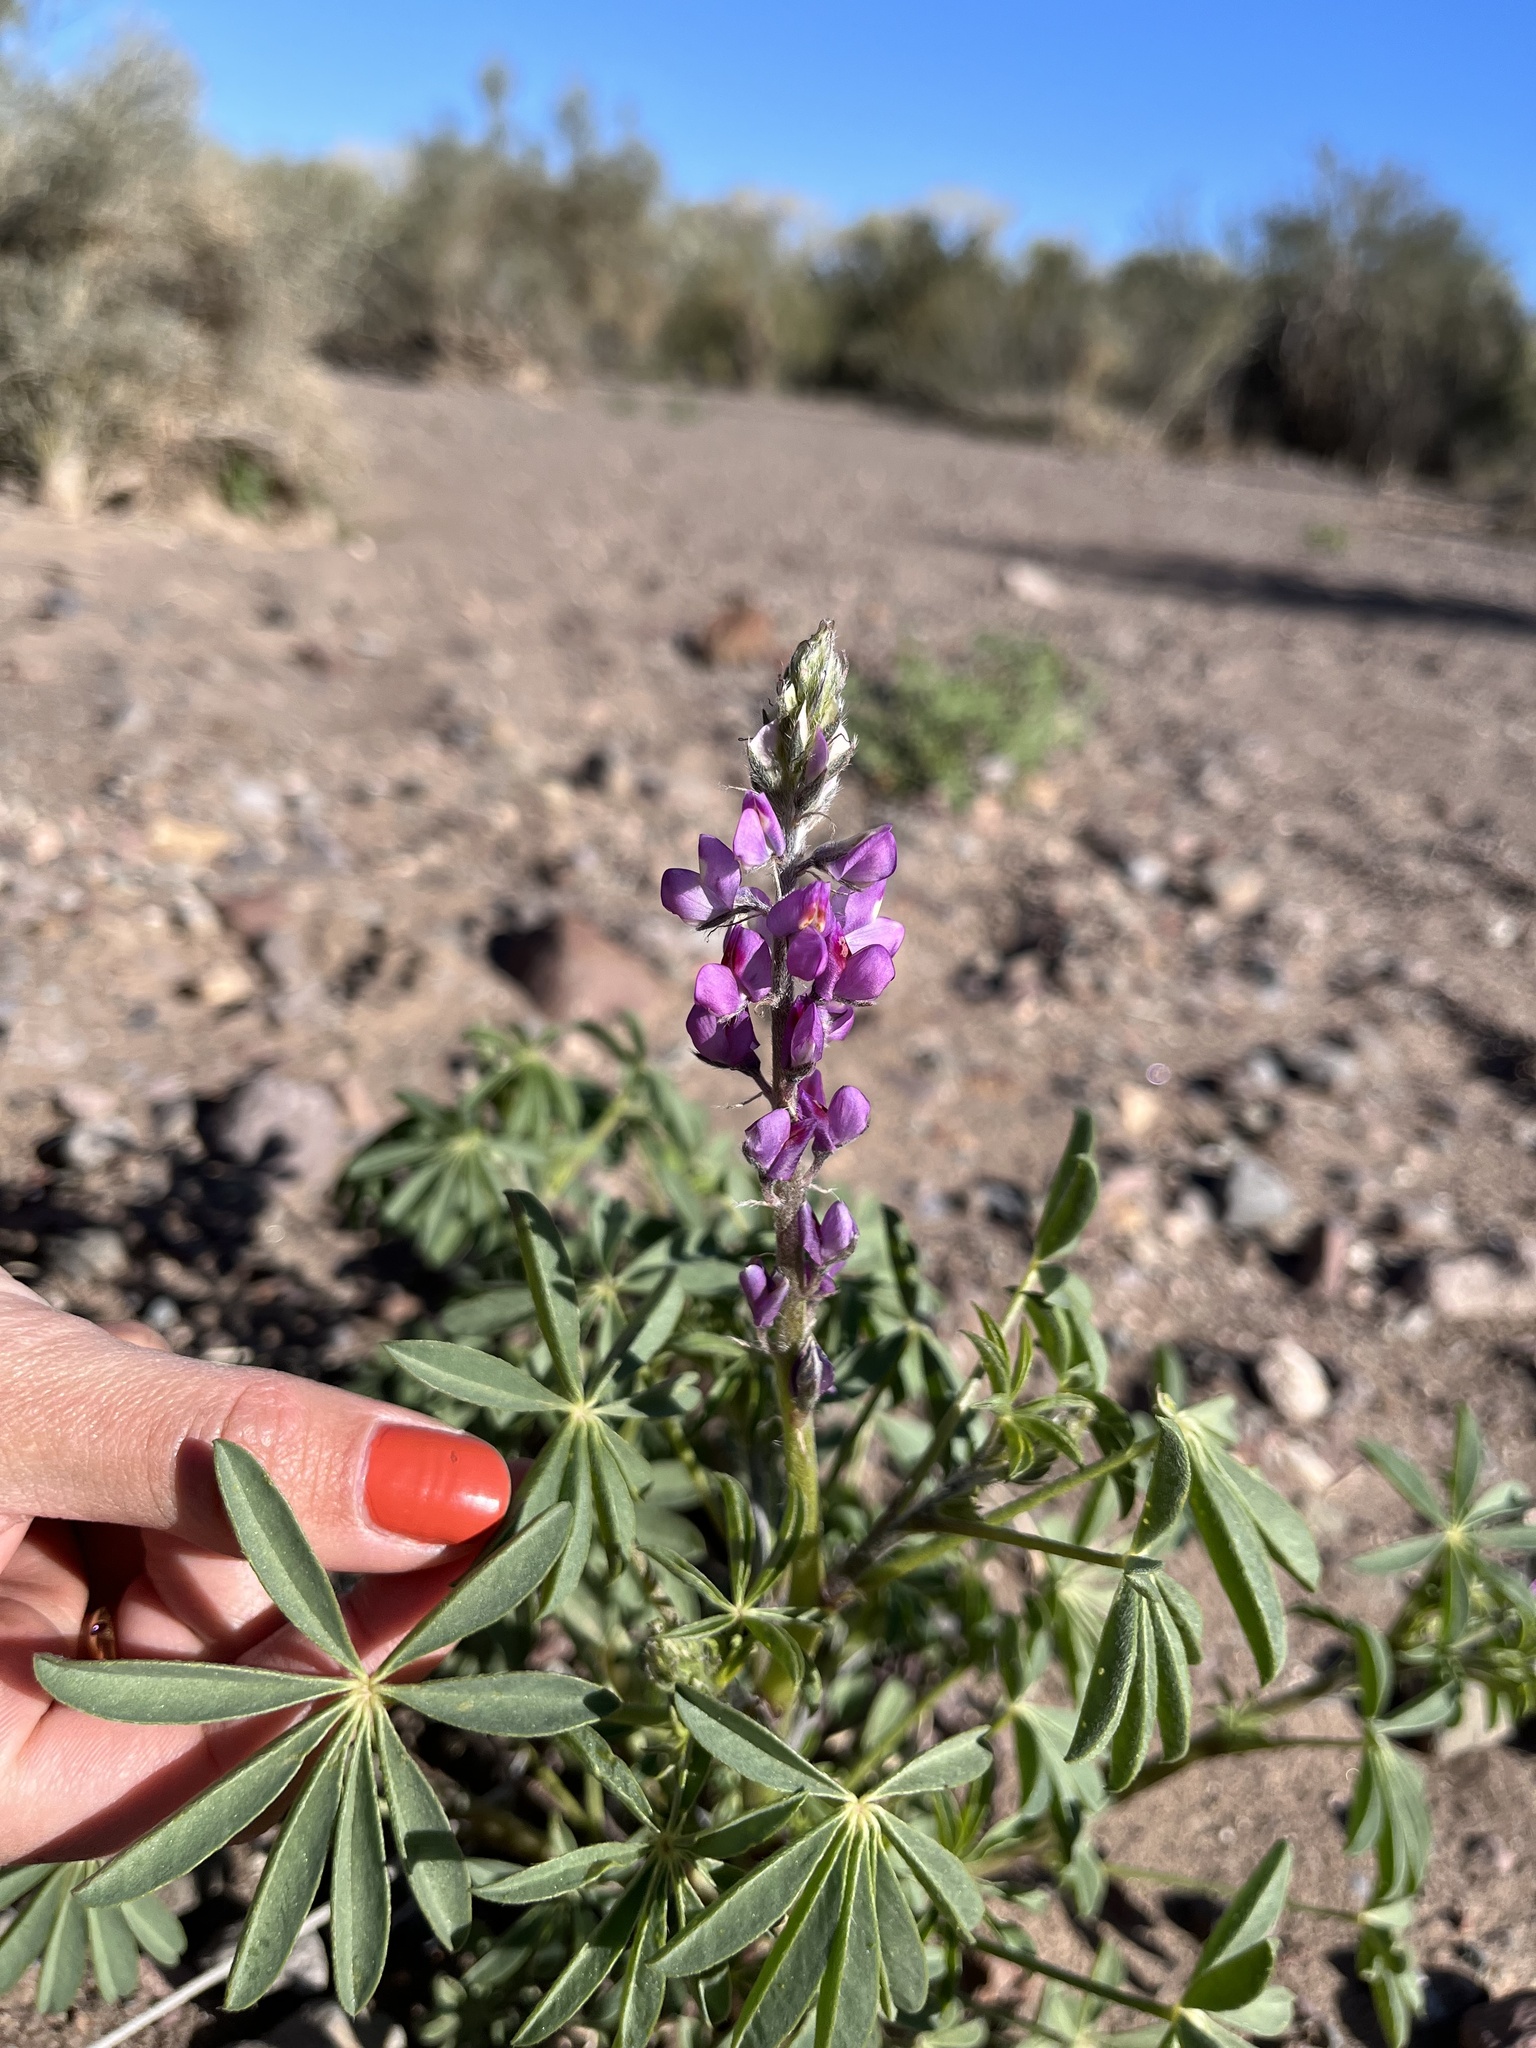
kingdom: Plantae
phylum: Tracheophyta
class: Magnoliopsida
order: Fabales
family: Fabaceae
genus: Lupinus
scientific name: Lupinus arizonicus
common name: Arizona lupine
